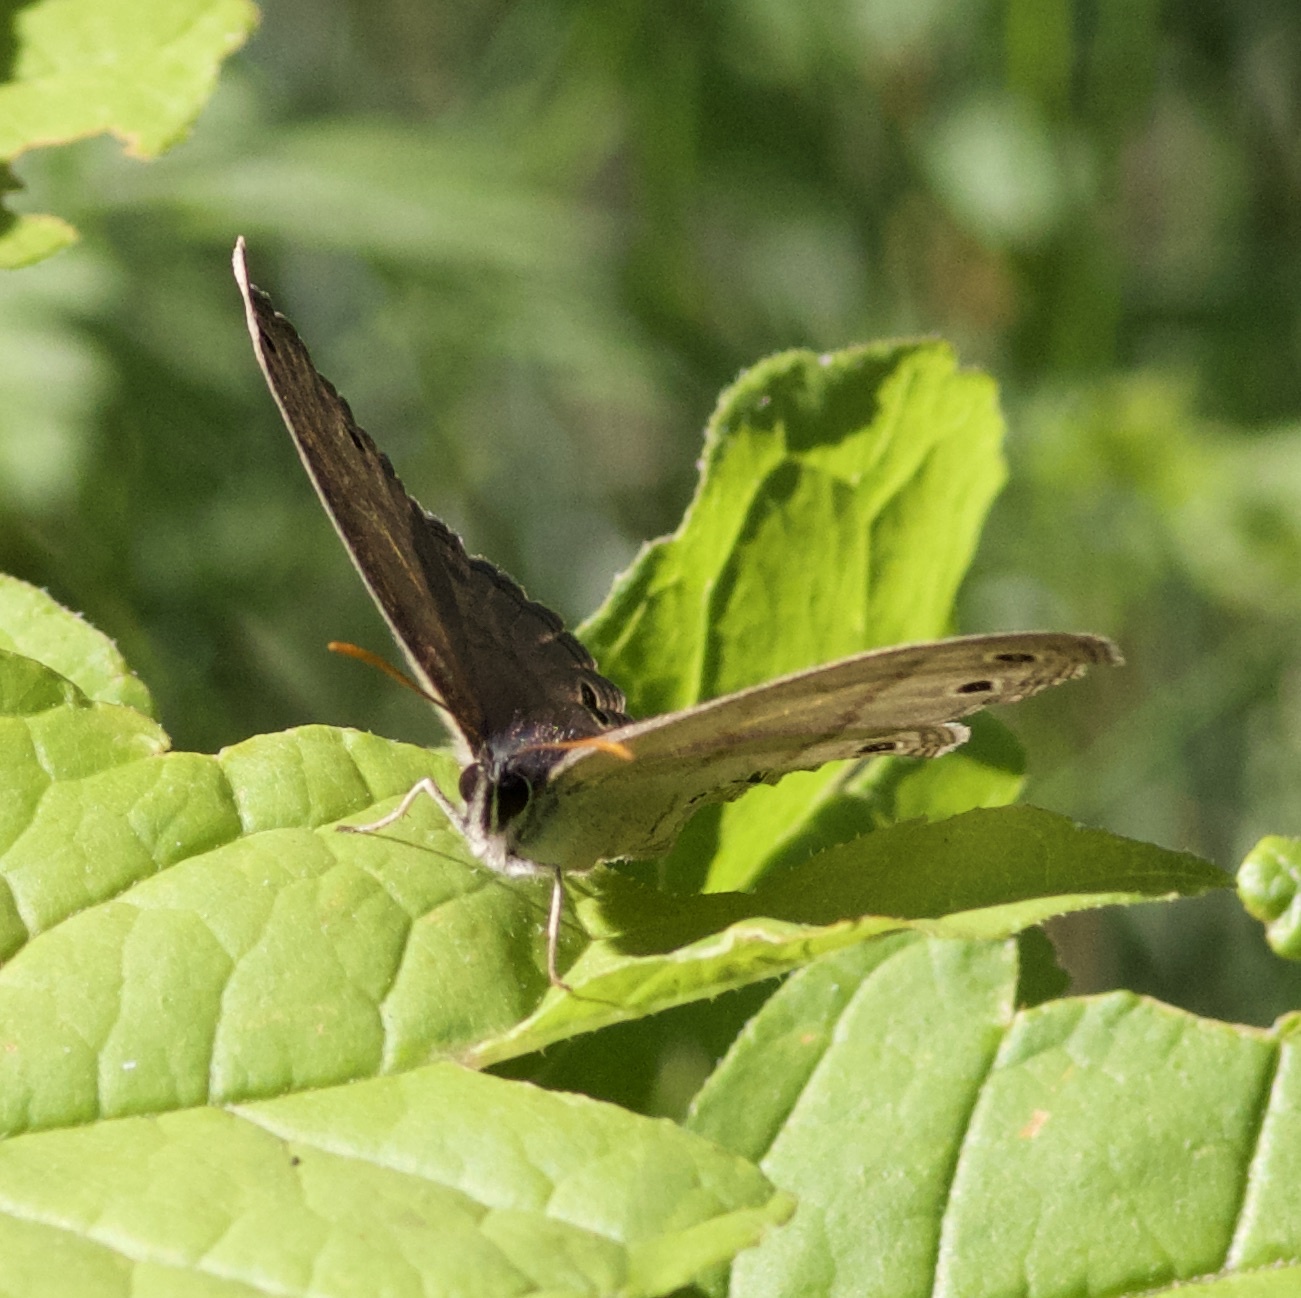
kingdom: Animalia
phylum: Arthropoda
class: Insecta
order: Lepidoptera
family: Nymphalidae
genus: Euptychia
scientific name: Euptychia cymela
